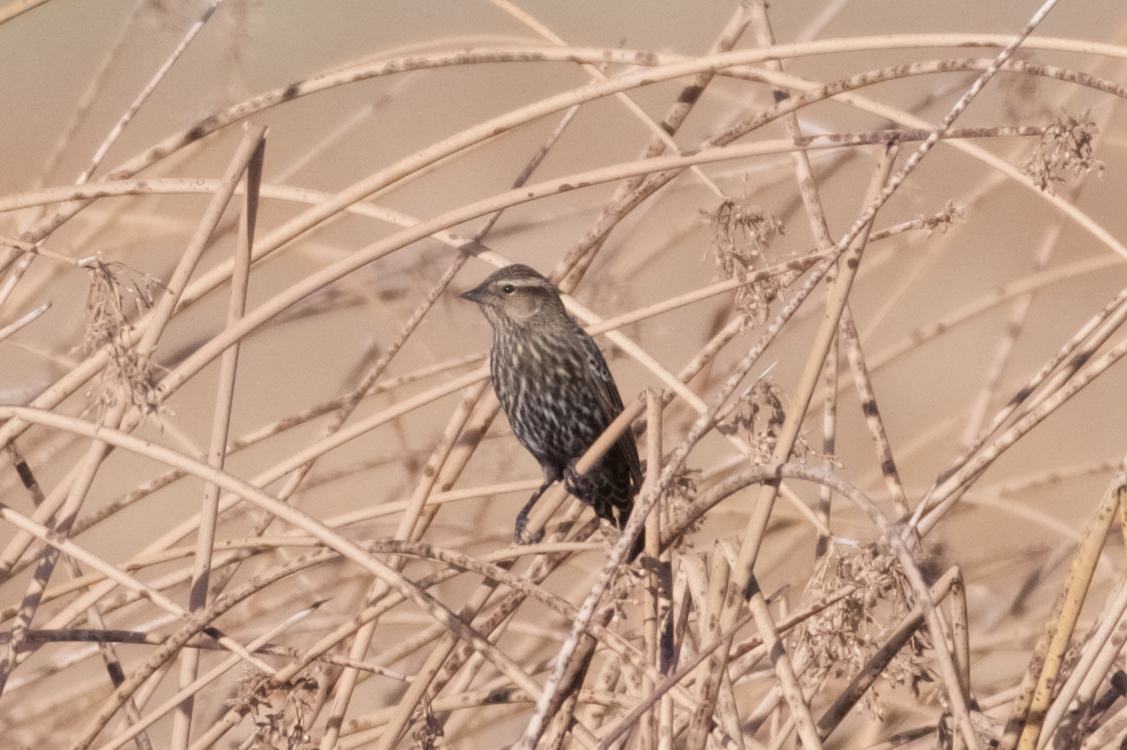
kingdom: Animalia
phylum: Chordata
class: Aves
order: Passeriformes
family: Icteridae
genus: Agelaius
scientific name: Agelaius phoeniceus
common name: Red-winged blackbird
